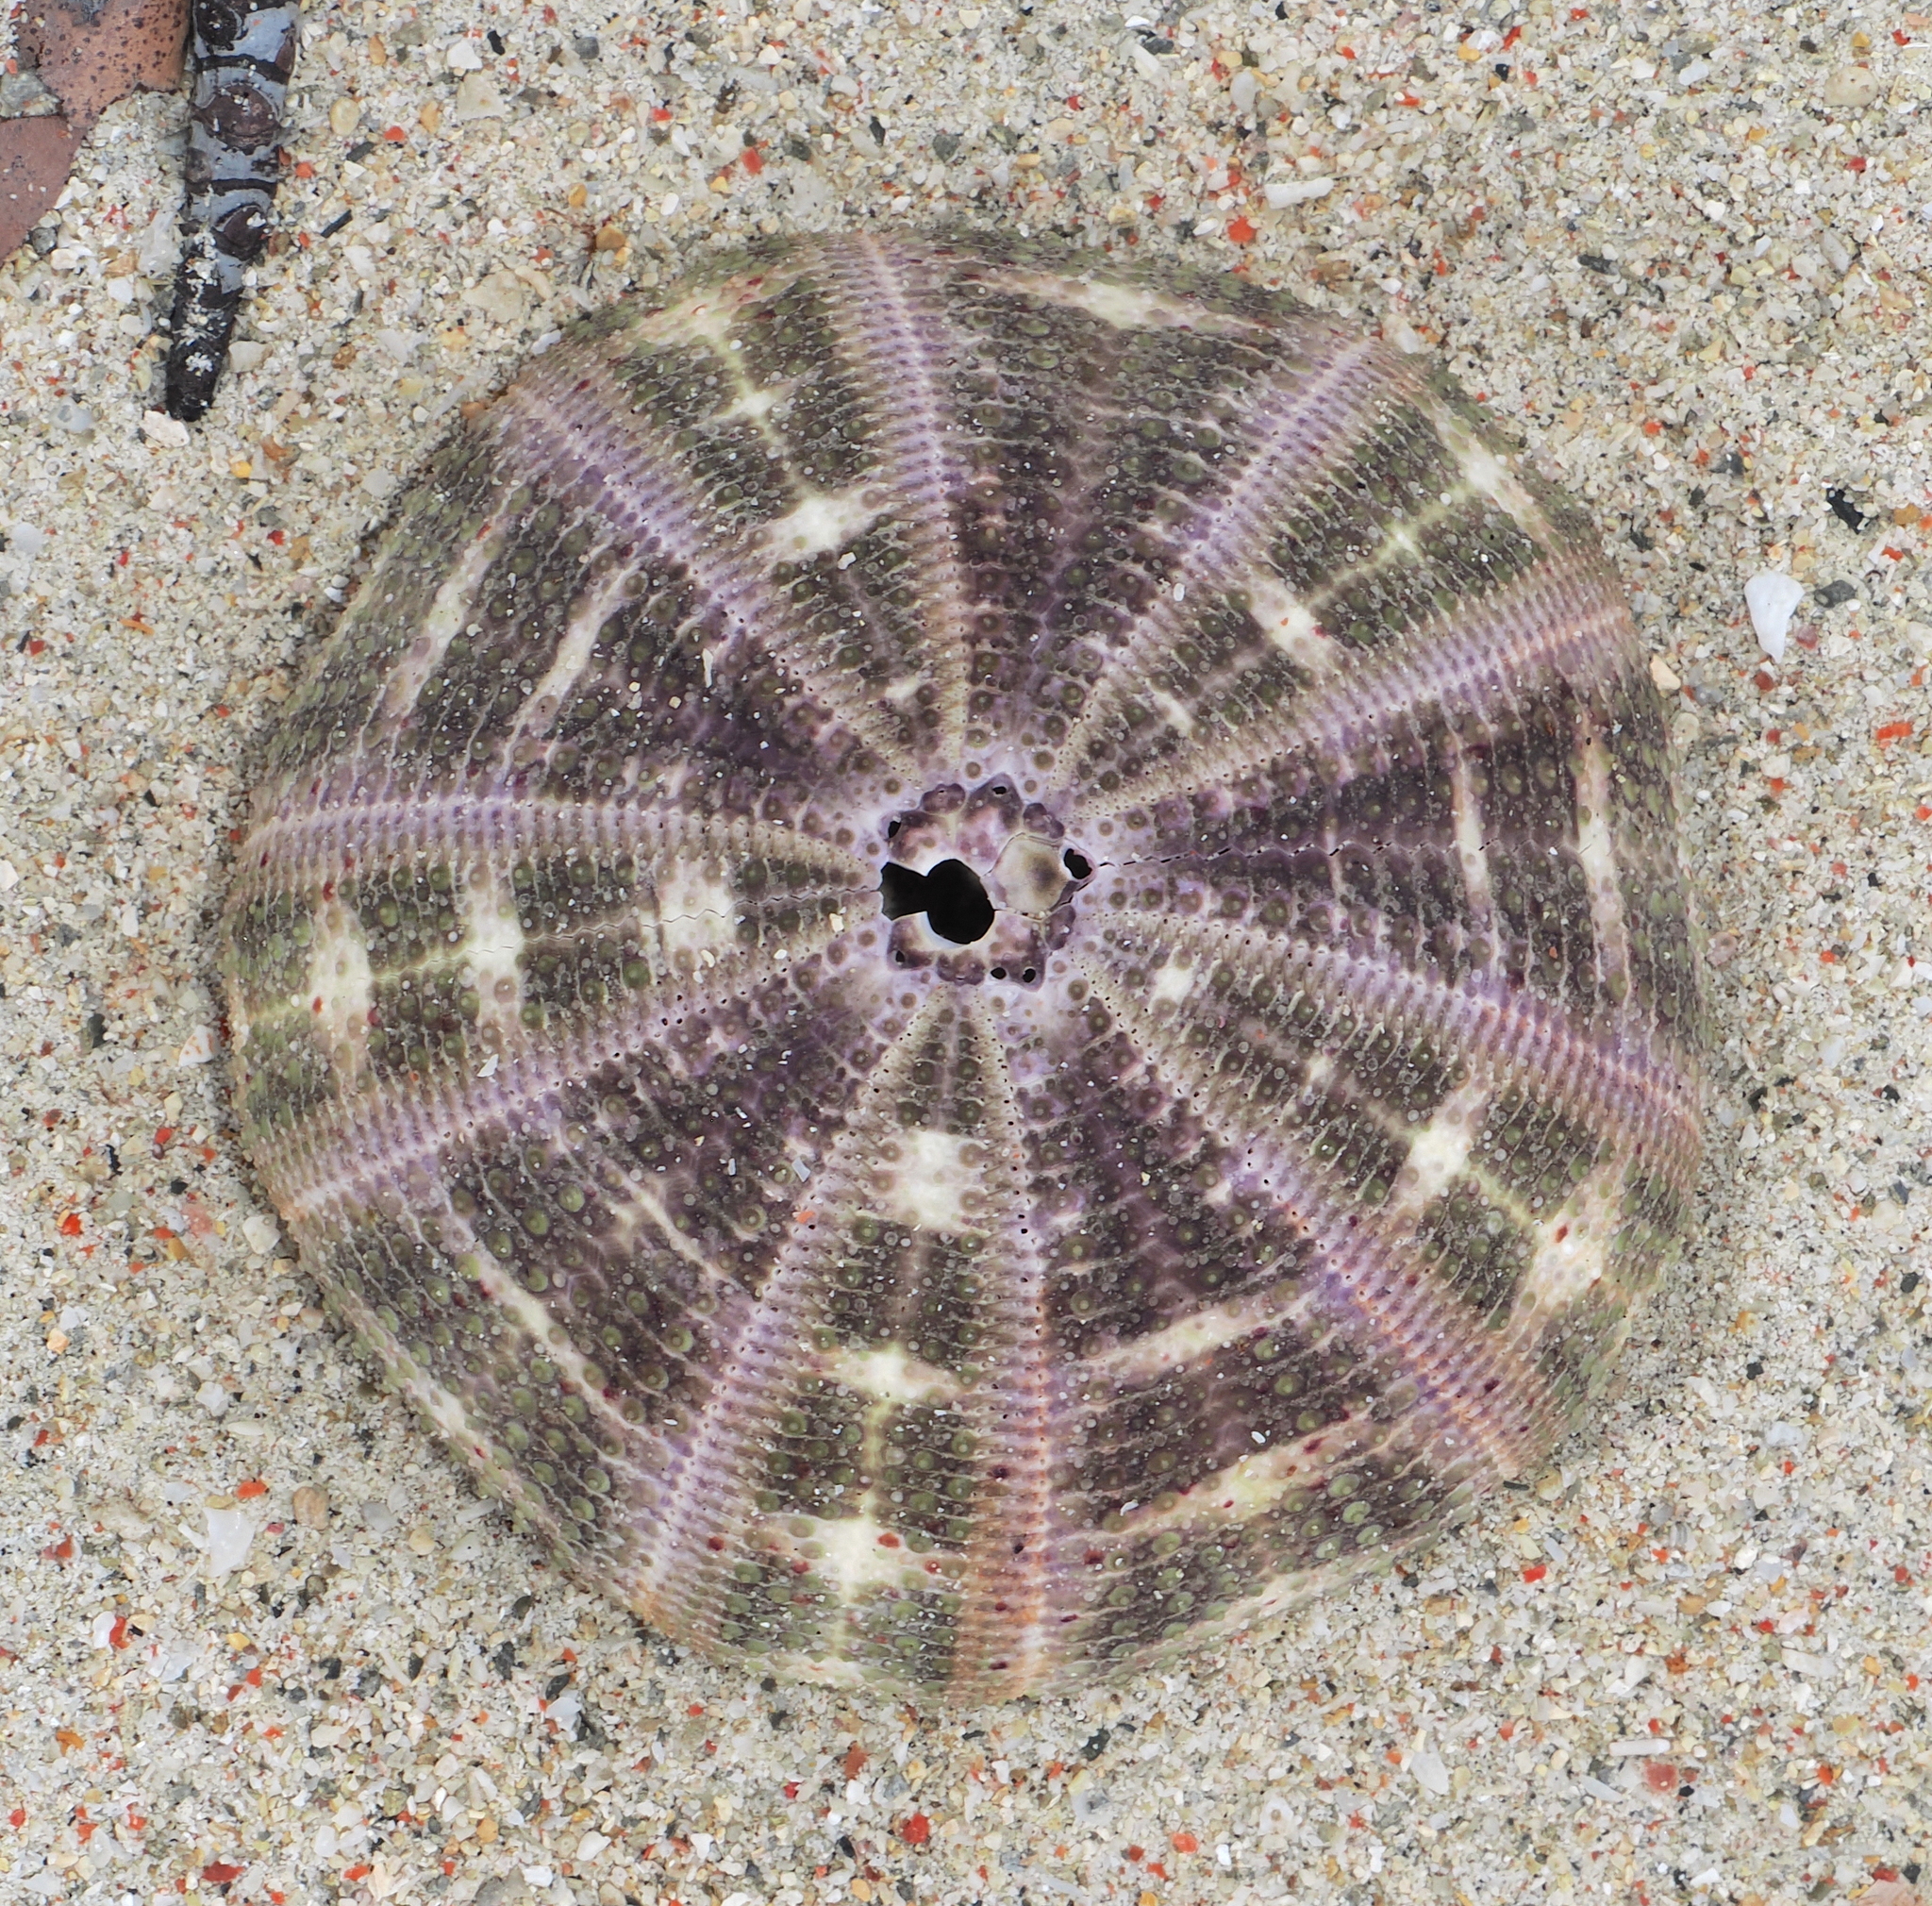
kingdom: Animalia
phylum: Echinodermata
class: Echinoidea
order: Camarodonta
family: Toxopneustidae
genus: Toxopneustes
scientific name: Toxopneustes pileolus
